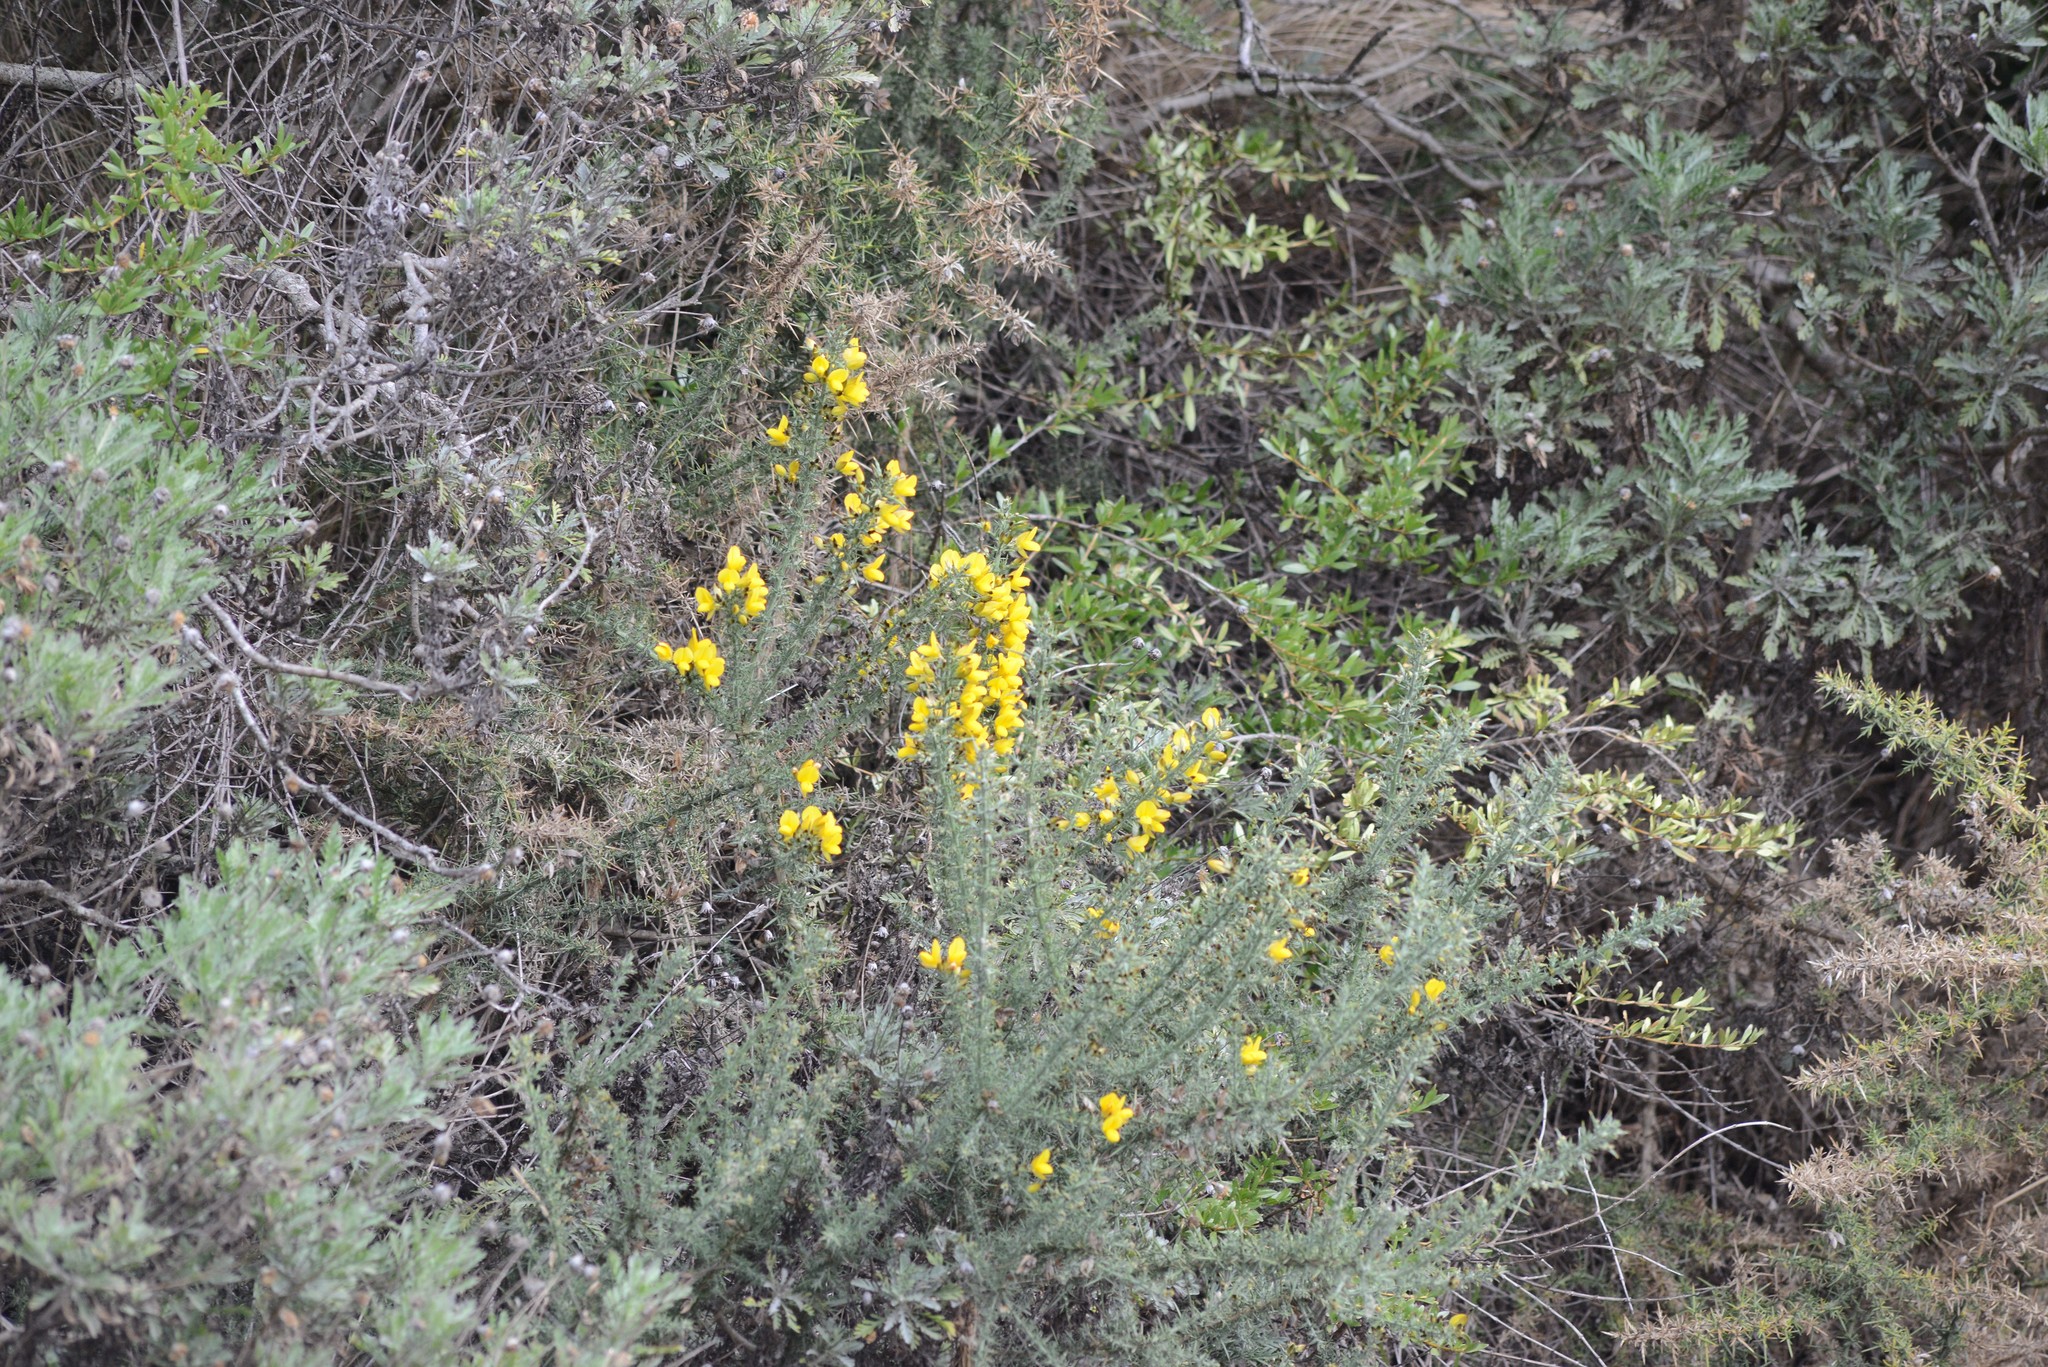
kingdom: Plantae
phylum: Tracheophyta
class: Magnoliopsida
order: Fabales
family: Fabaceae
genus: Ulex
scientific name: Ulex europaeus
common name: Common gorse
